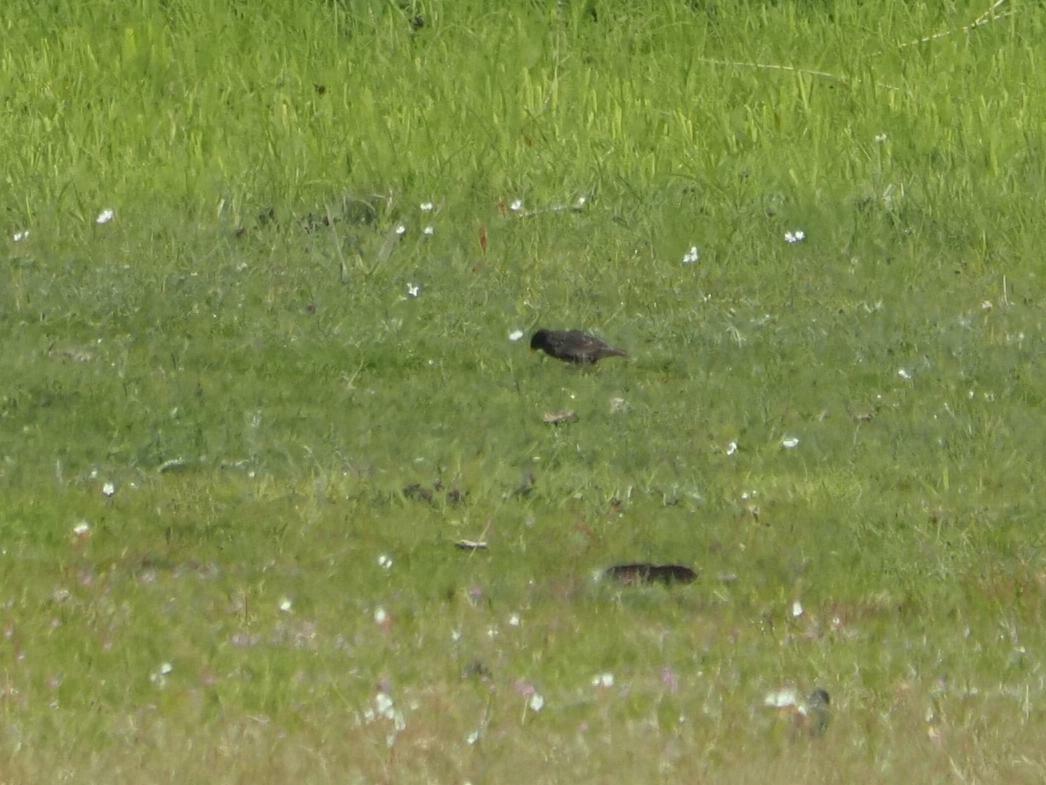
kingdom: Animalia
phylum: Chordata
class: Aves
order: Passeriformes
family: Sturnidae
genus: Sturnus
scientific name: Sturnus vulgaris
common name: Common starling
